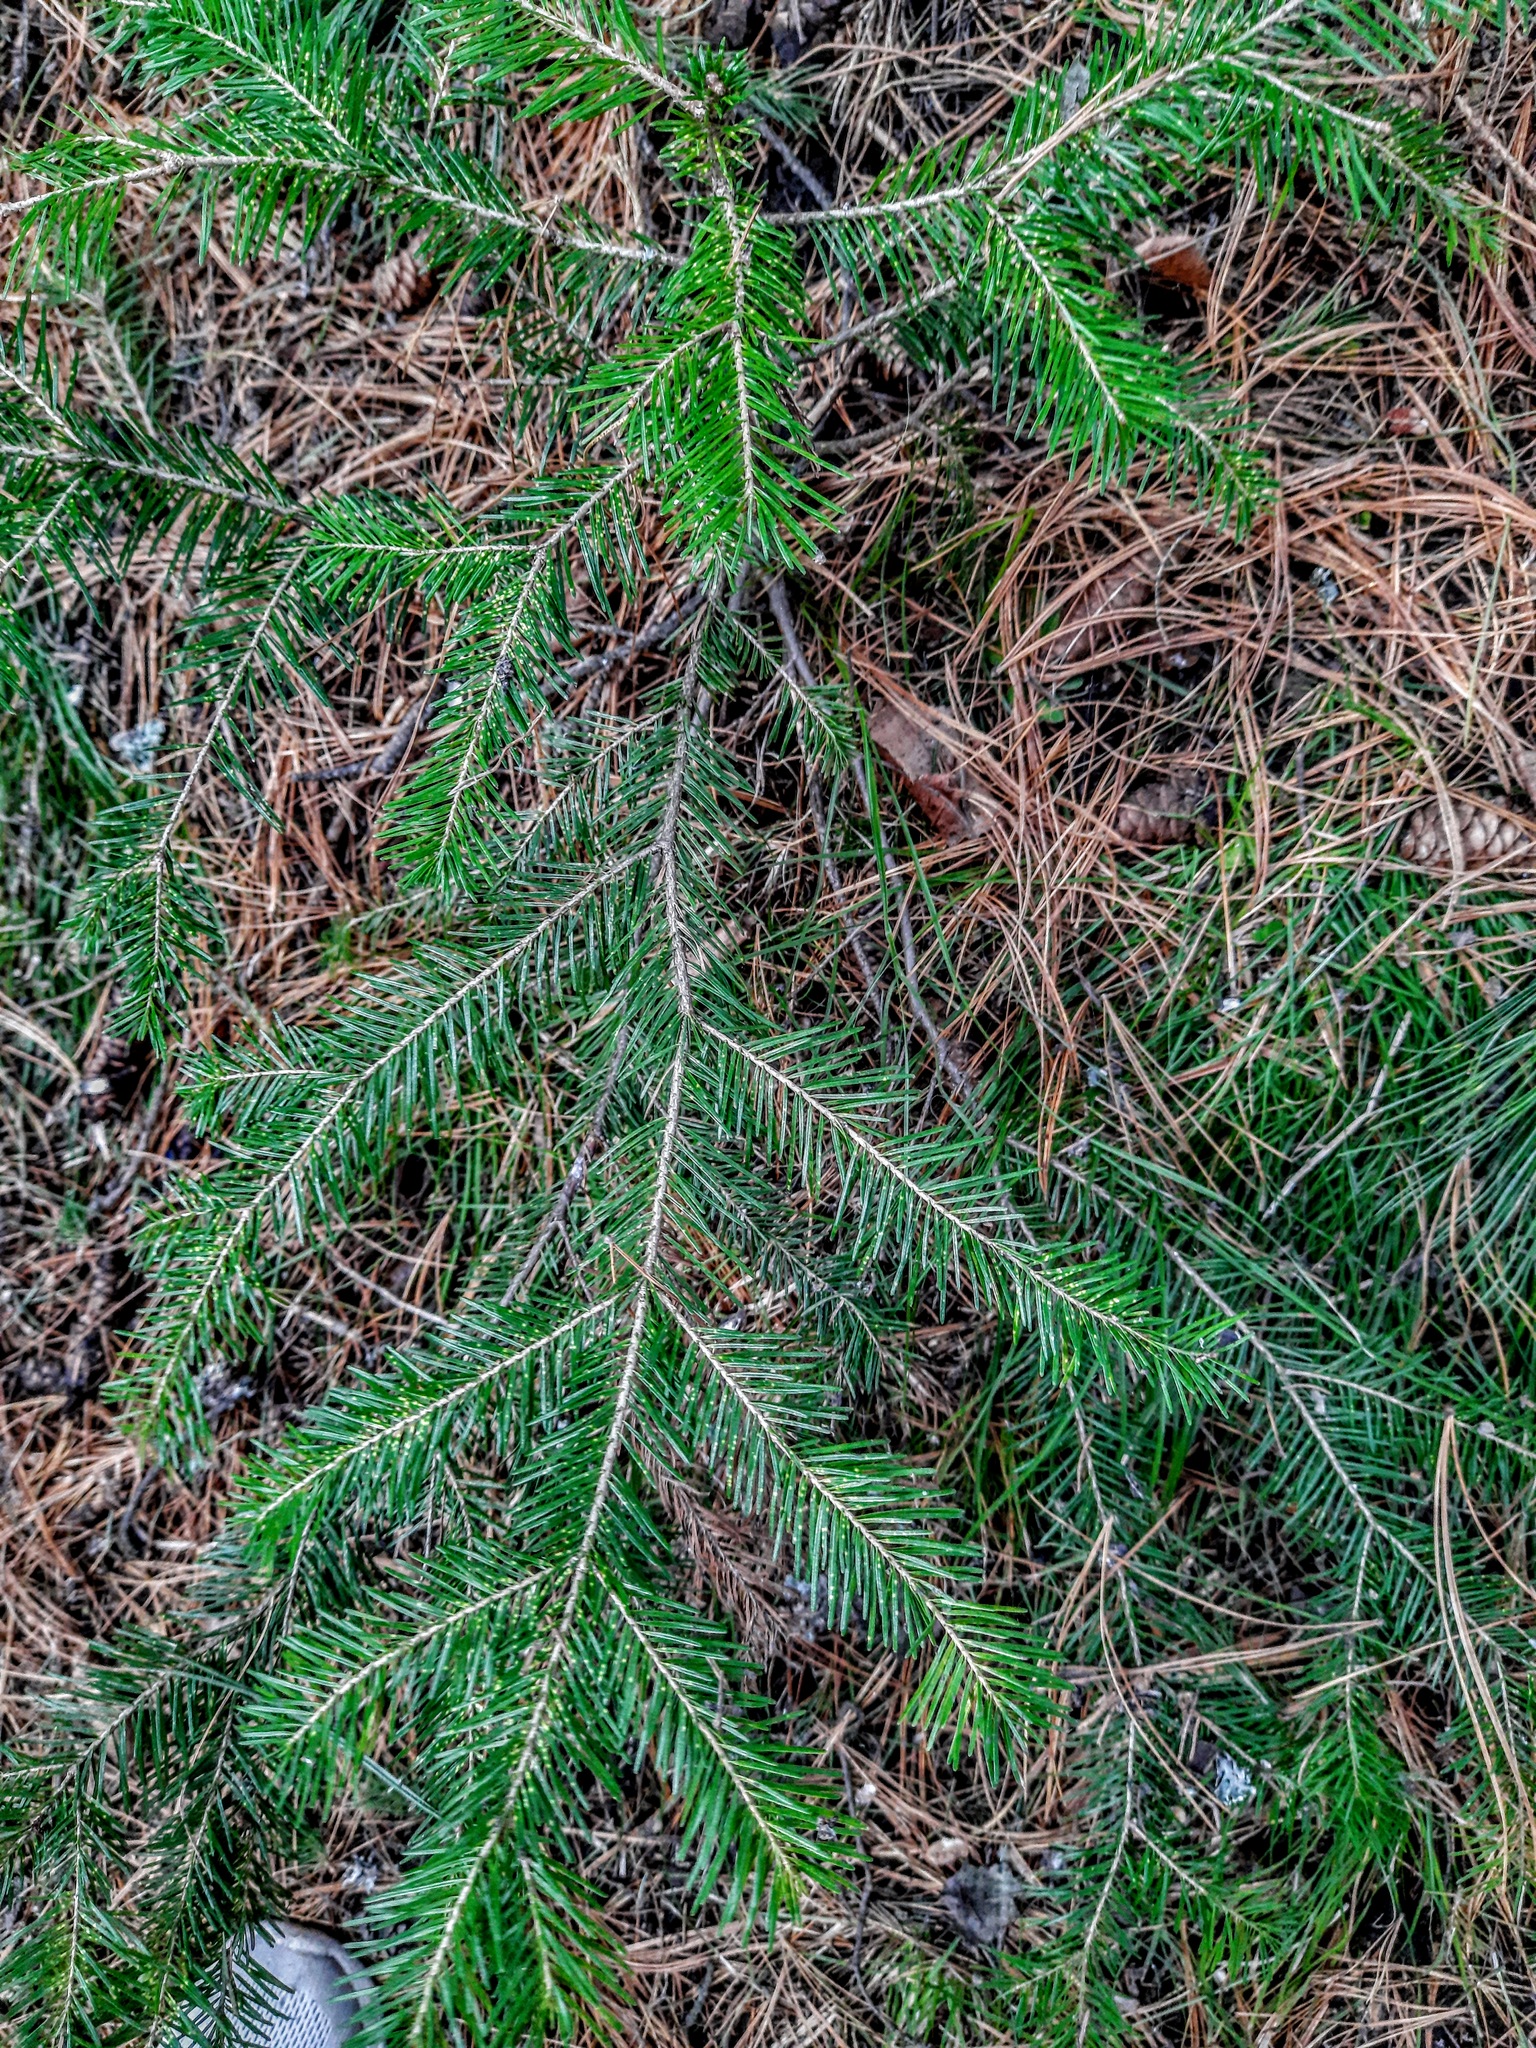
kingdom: Plantae
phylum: Tracheophyta
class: Pinopsida
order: Pinales
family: Pinaceae
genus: Abies
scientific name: Abies sibirica
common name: Siberian fir
